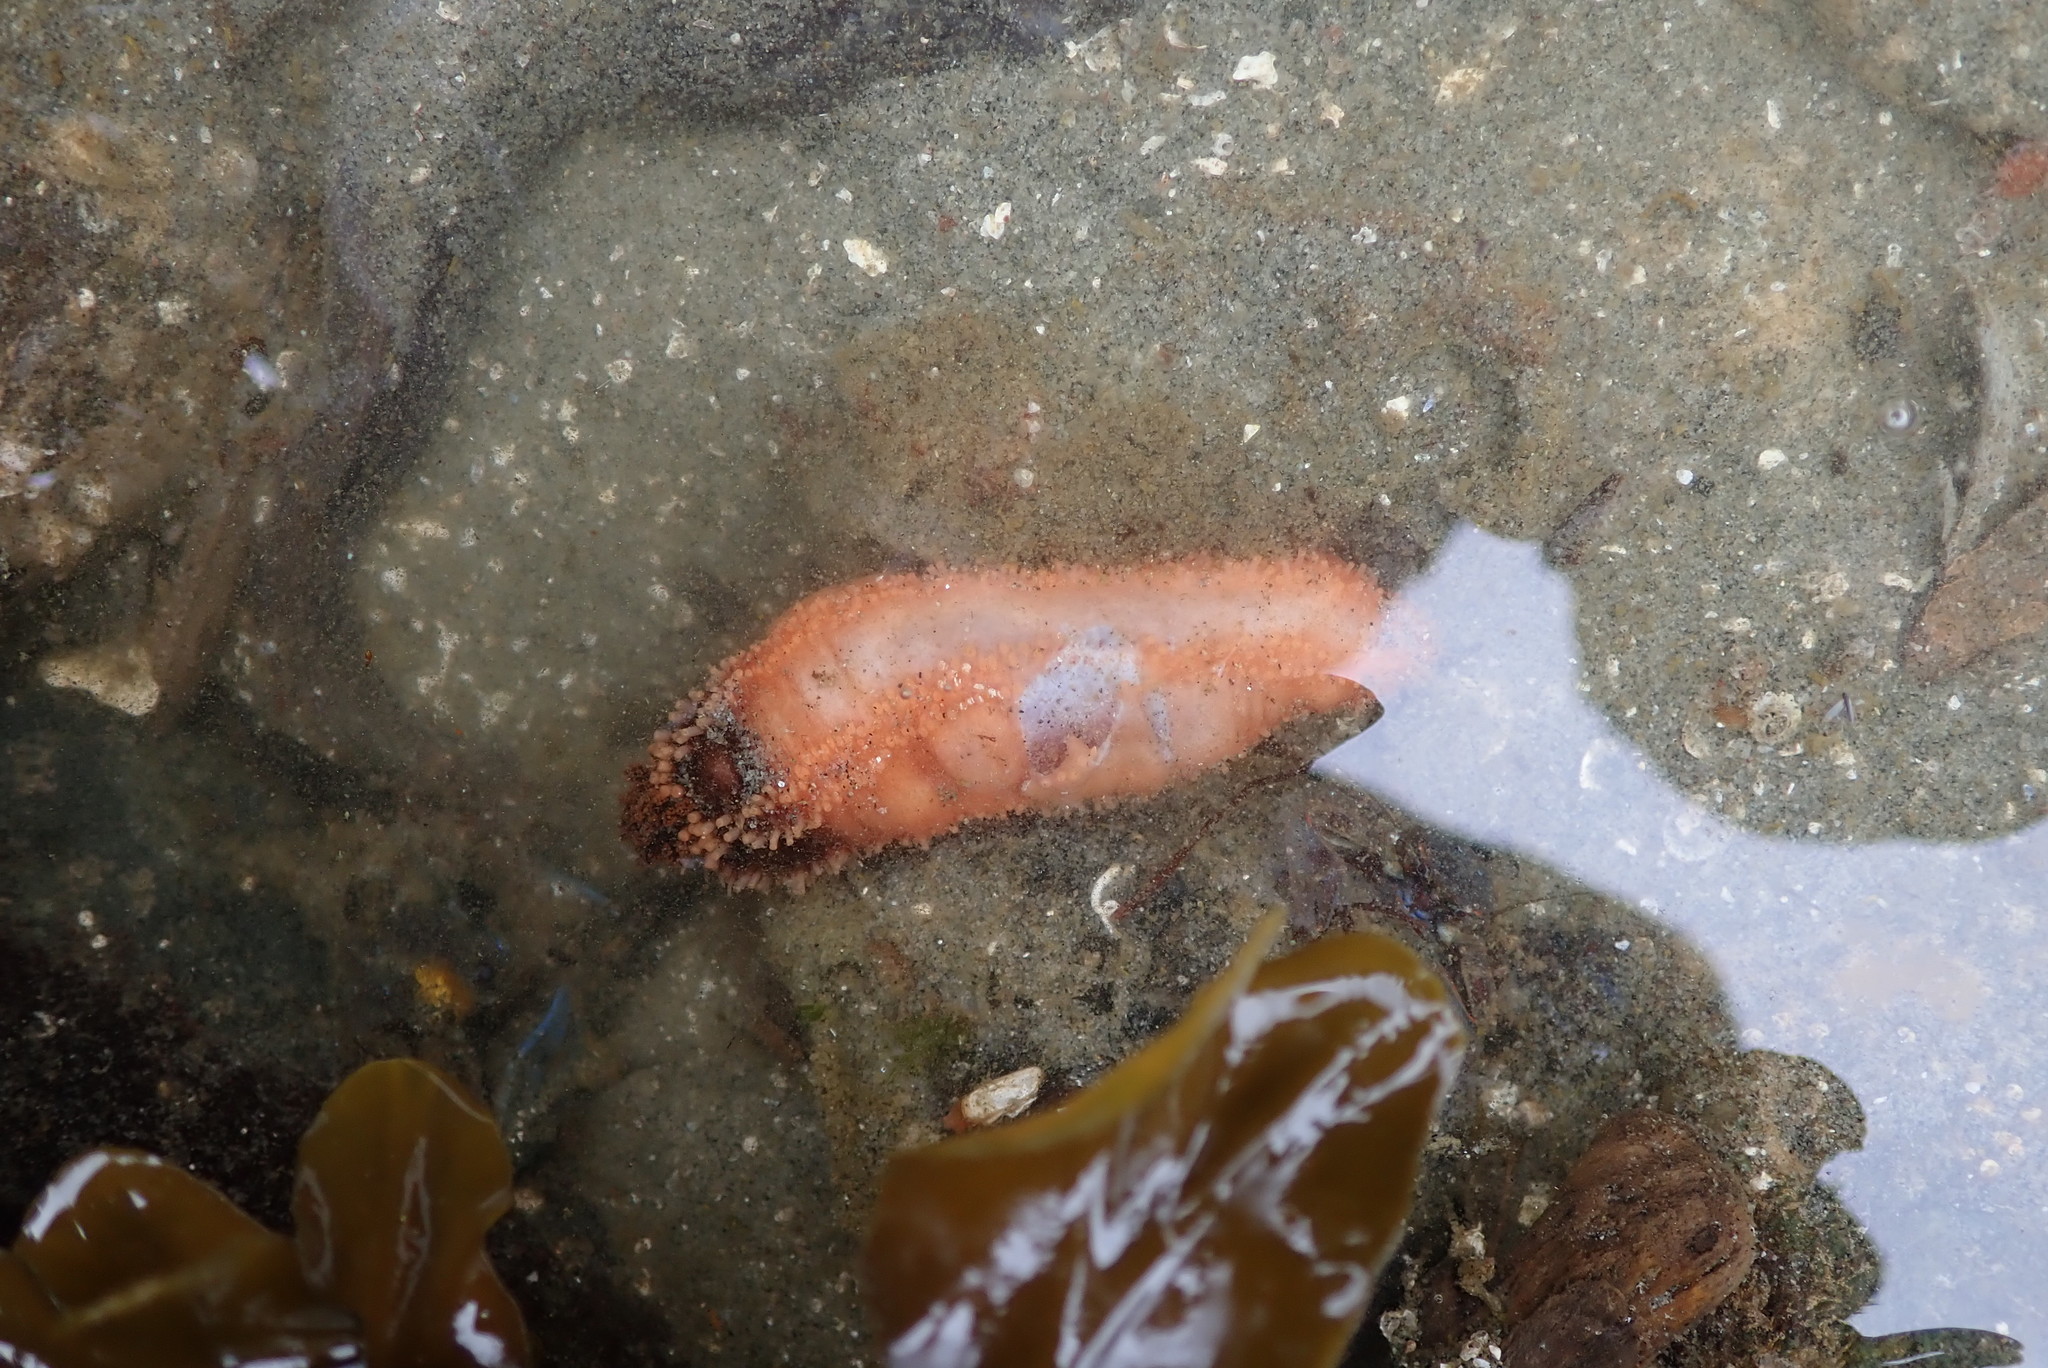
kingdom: Animalia
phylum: Echinodermata
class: Holothuroidea
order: Dendrochirotida
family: Cucumariidae
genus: Cucumaria
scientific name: Cucumaria miniata
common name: Orange sea cucumber
